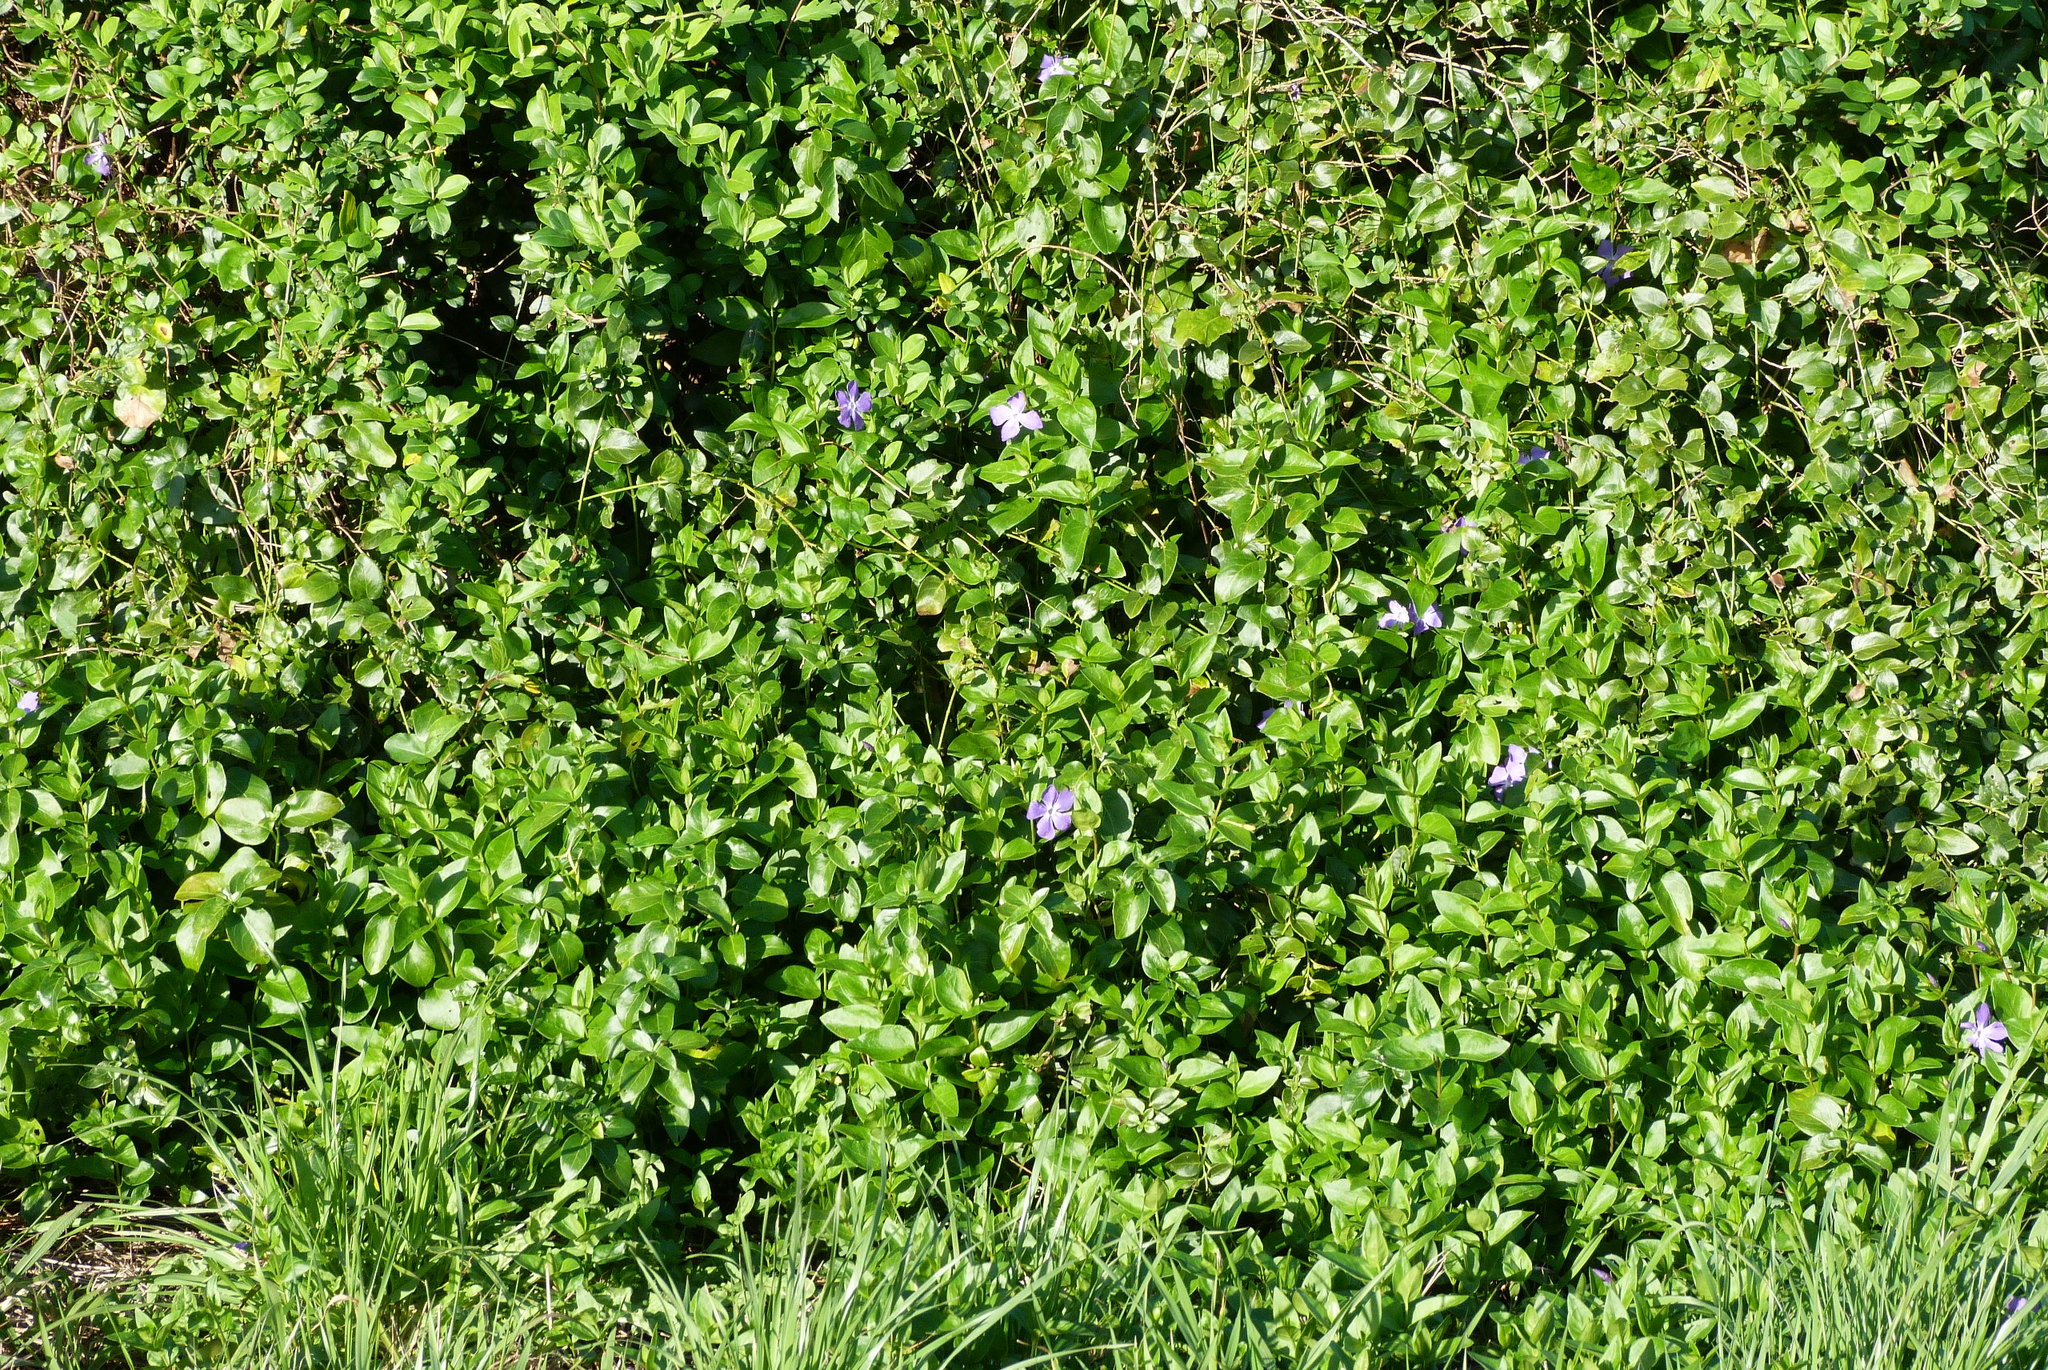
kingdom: Plantae
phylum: Tracheophyta
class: Magnoliopsida
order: Gentianales
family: Apocynaceae
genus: Vinca
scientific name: Vinca major
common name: Greater periwinkle
